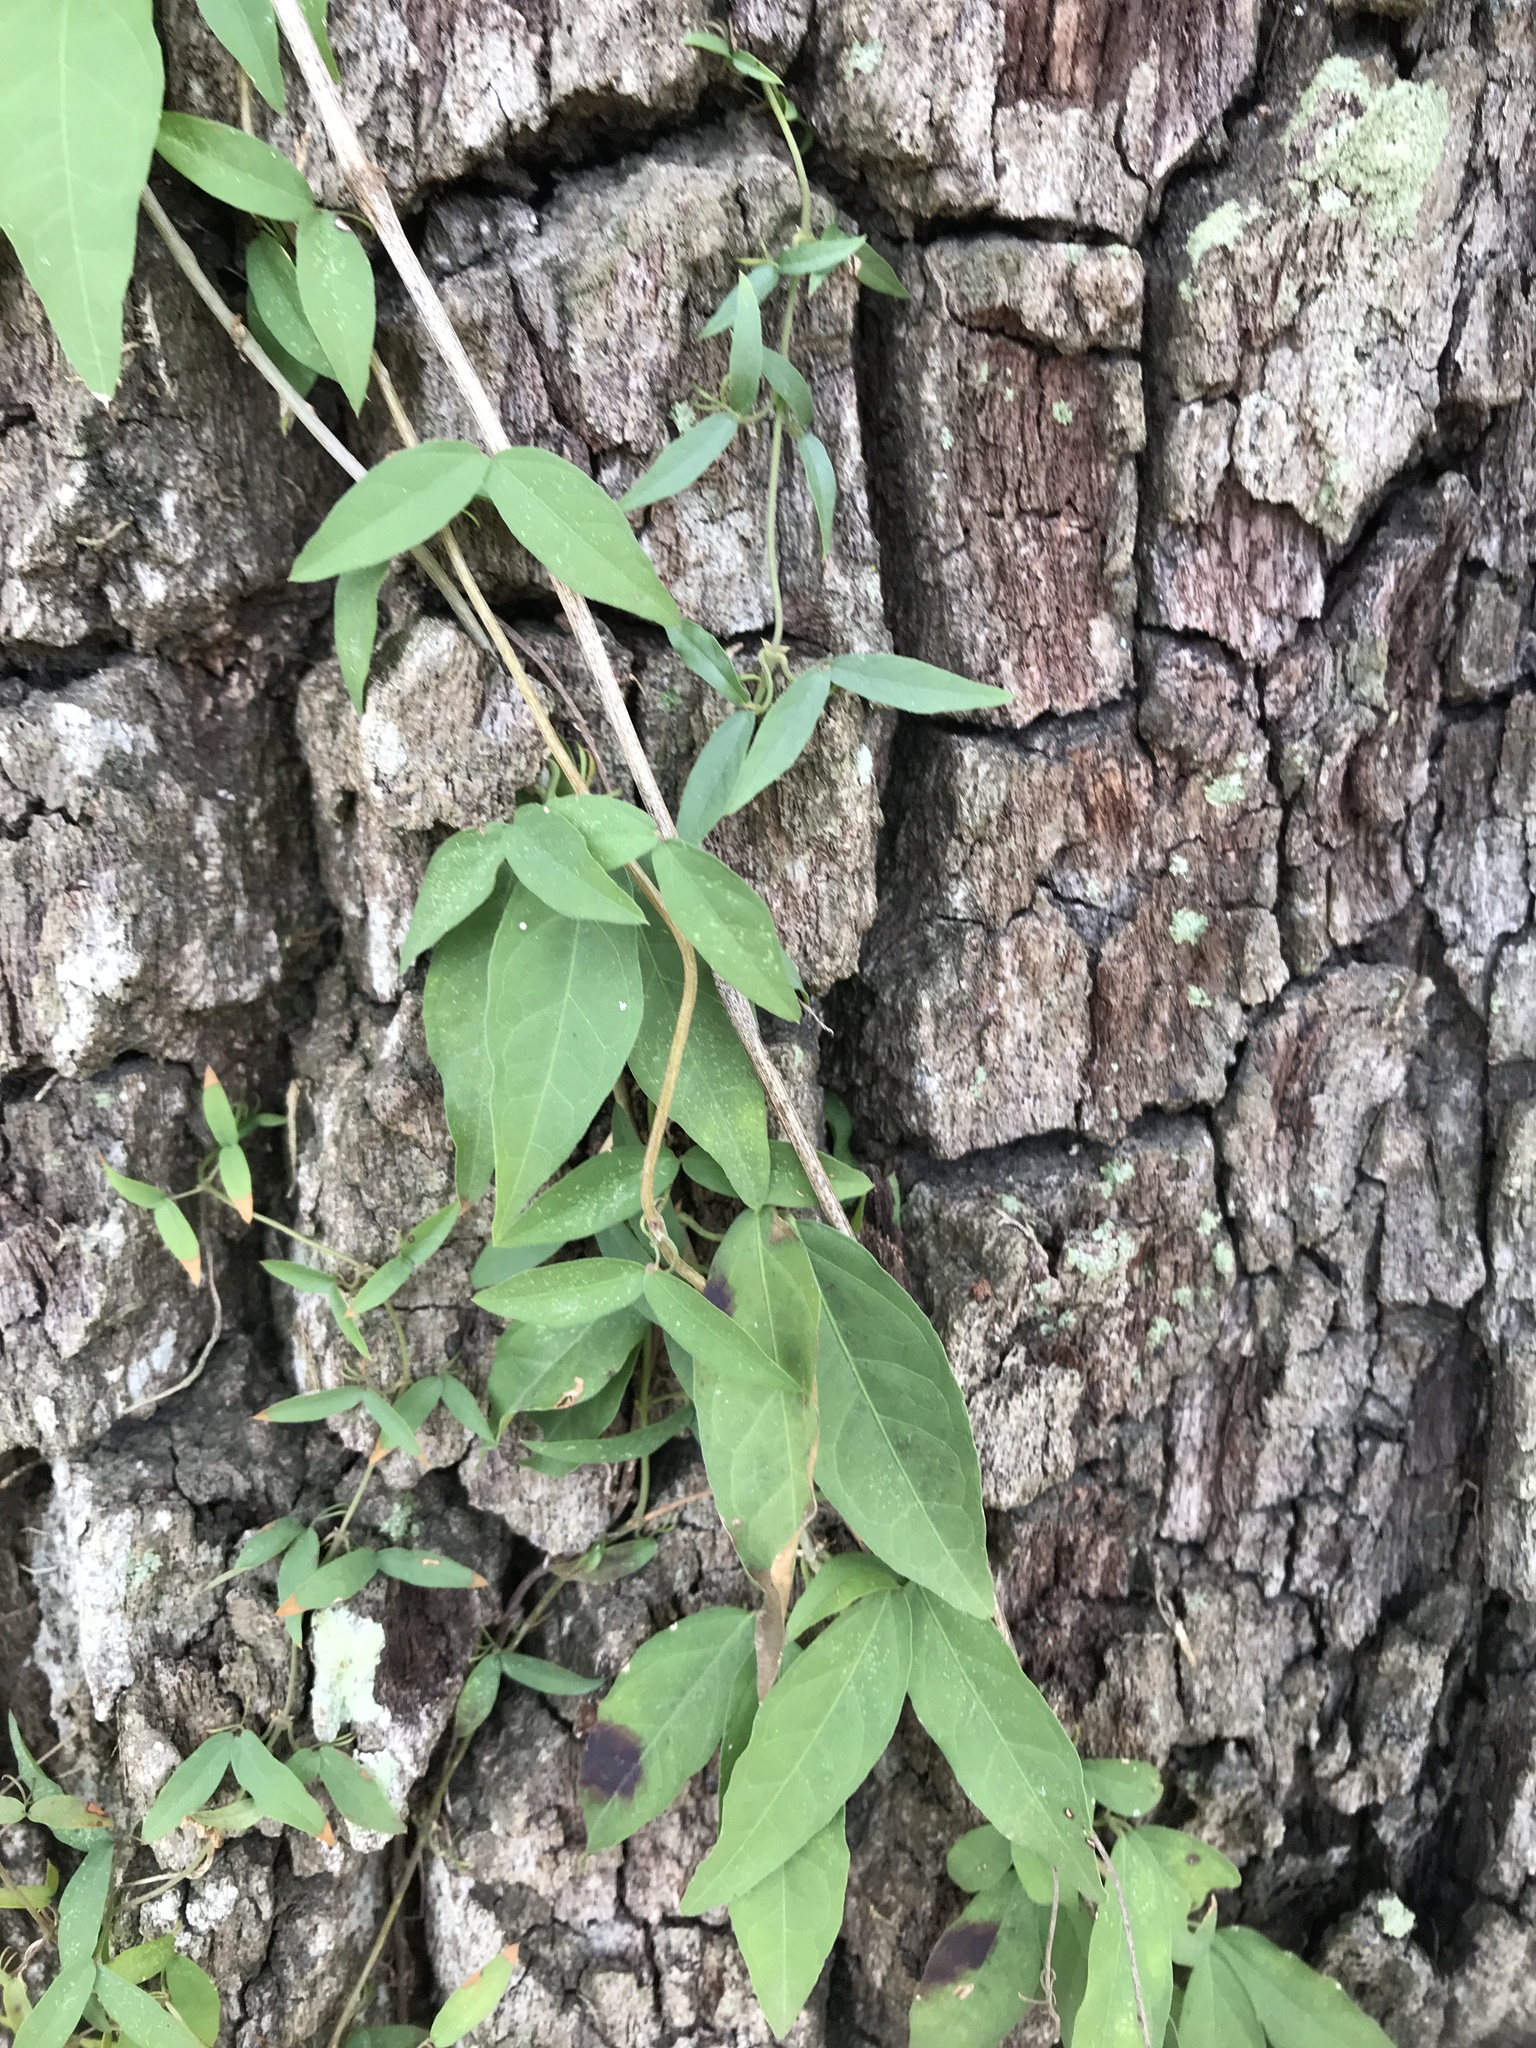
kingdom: Plantae
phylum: Tracheophyta
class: Magnoliopsida
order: Lamiales
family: Bignoniaceae
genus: Dolichandra
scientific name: Dolichandra unguis-cati
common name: Catclaw vine
